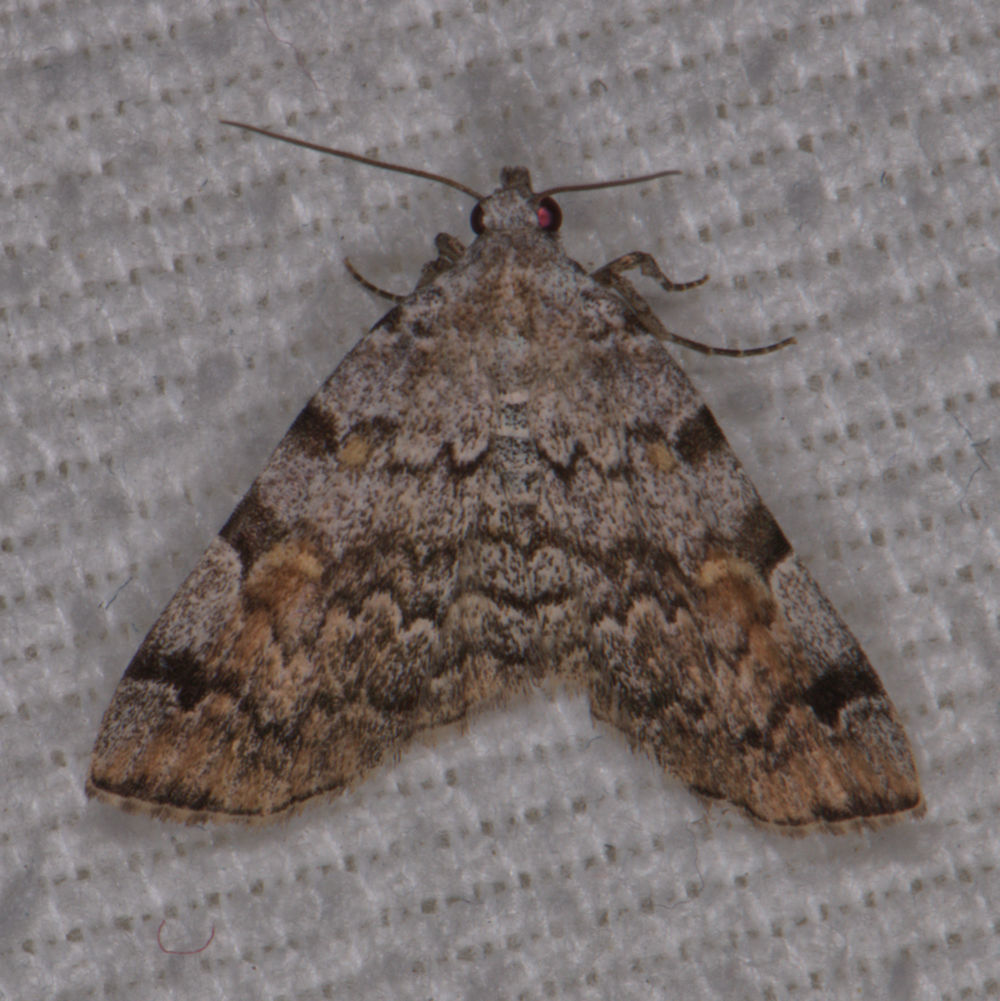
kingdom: Animalia
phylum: Arthropoda
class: Insecta
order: Lepidoptera
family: Erebidae
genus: Idia
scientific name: Idia americalis
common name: American idia moth
